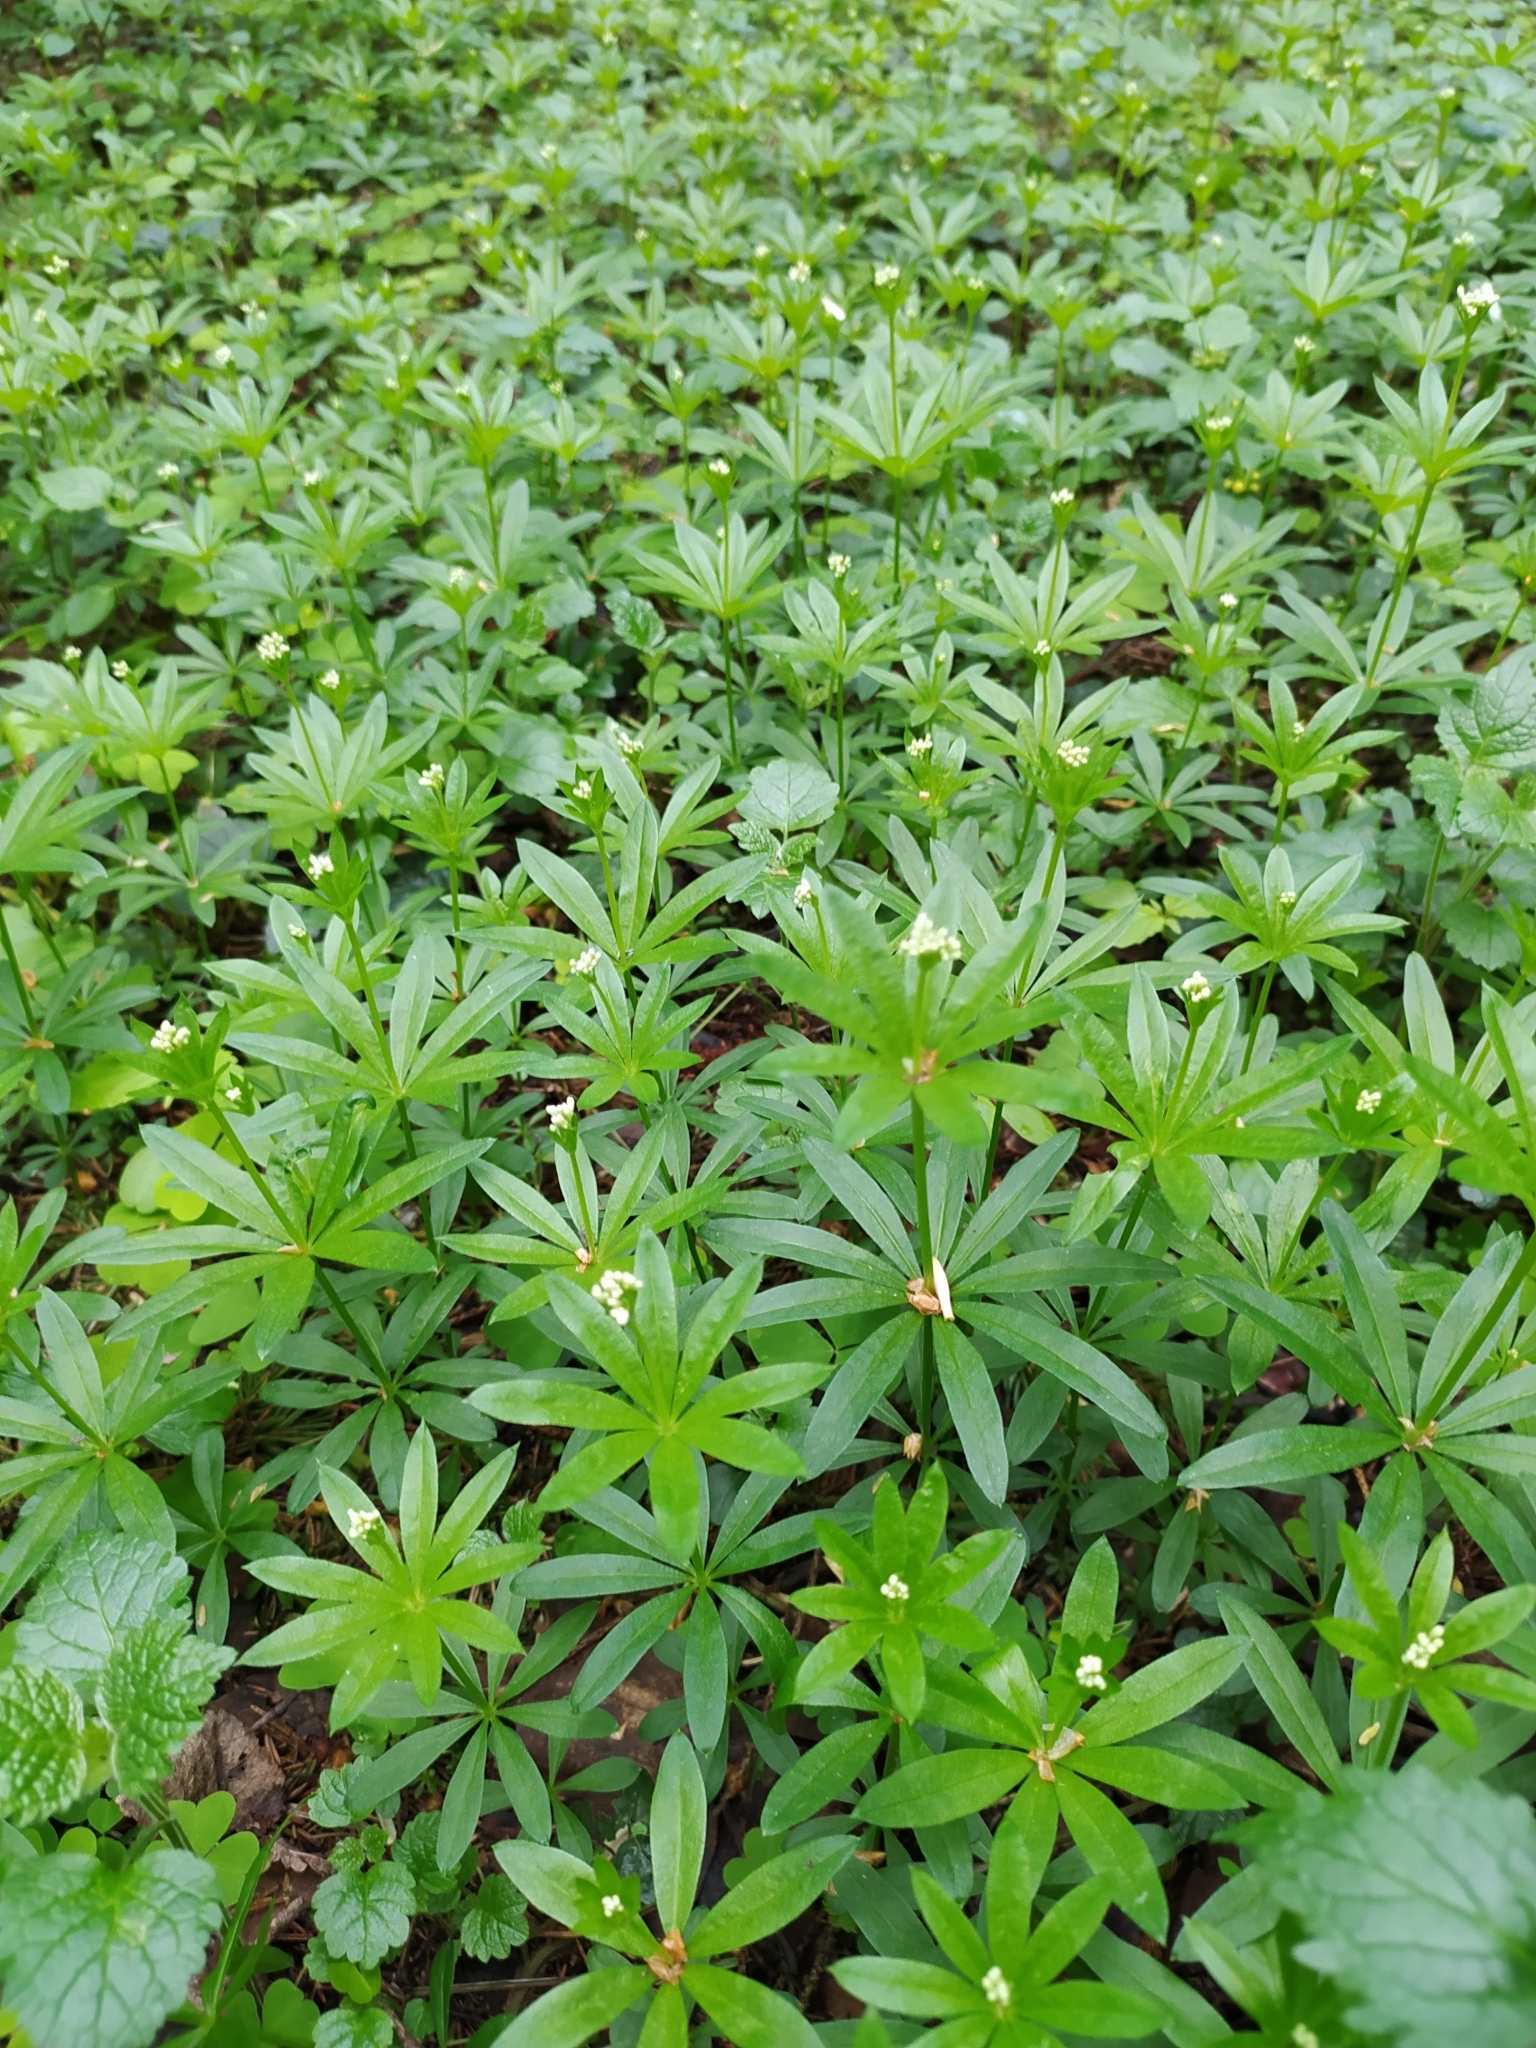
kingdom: Plantae
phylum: Tracheophyta
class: Magnoliopsida
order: Gentianales
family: Rubiaceae
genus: Galium
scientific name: Galium odoratum
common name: Sweet woodruff
